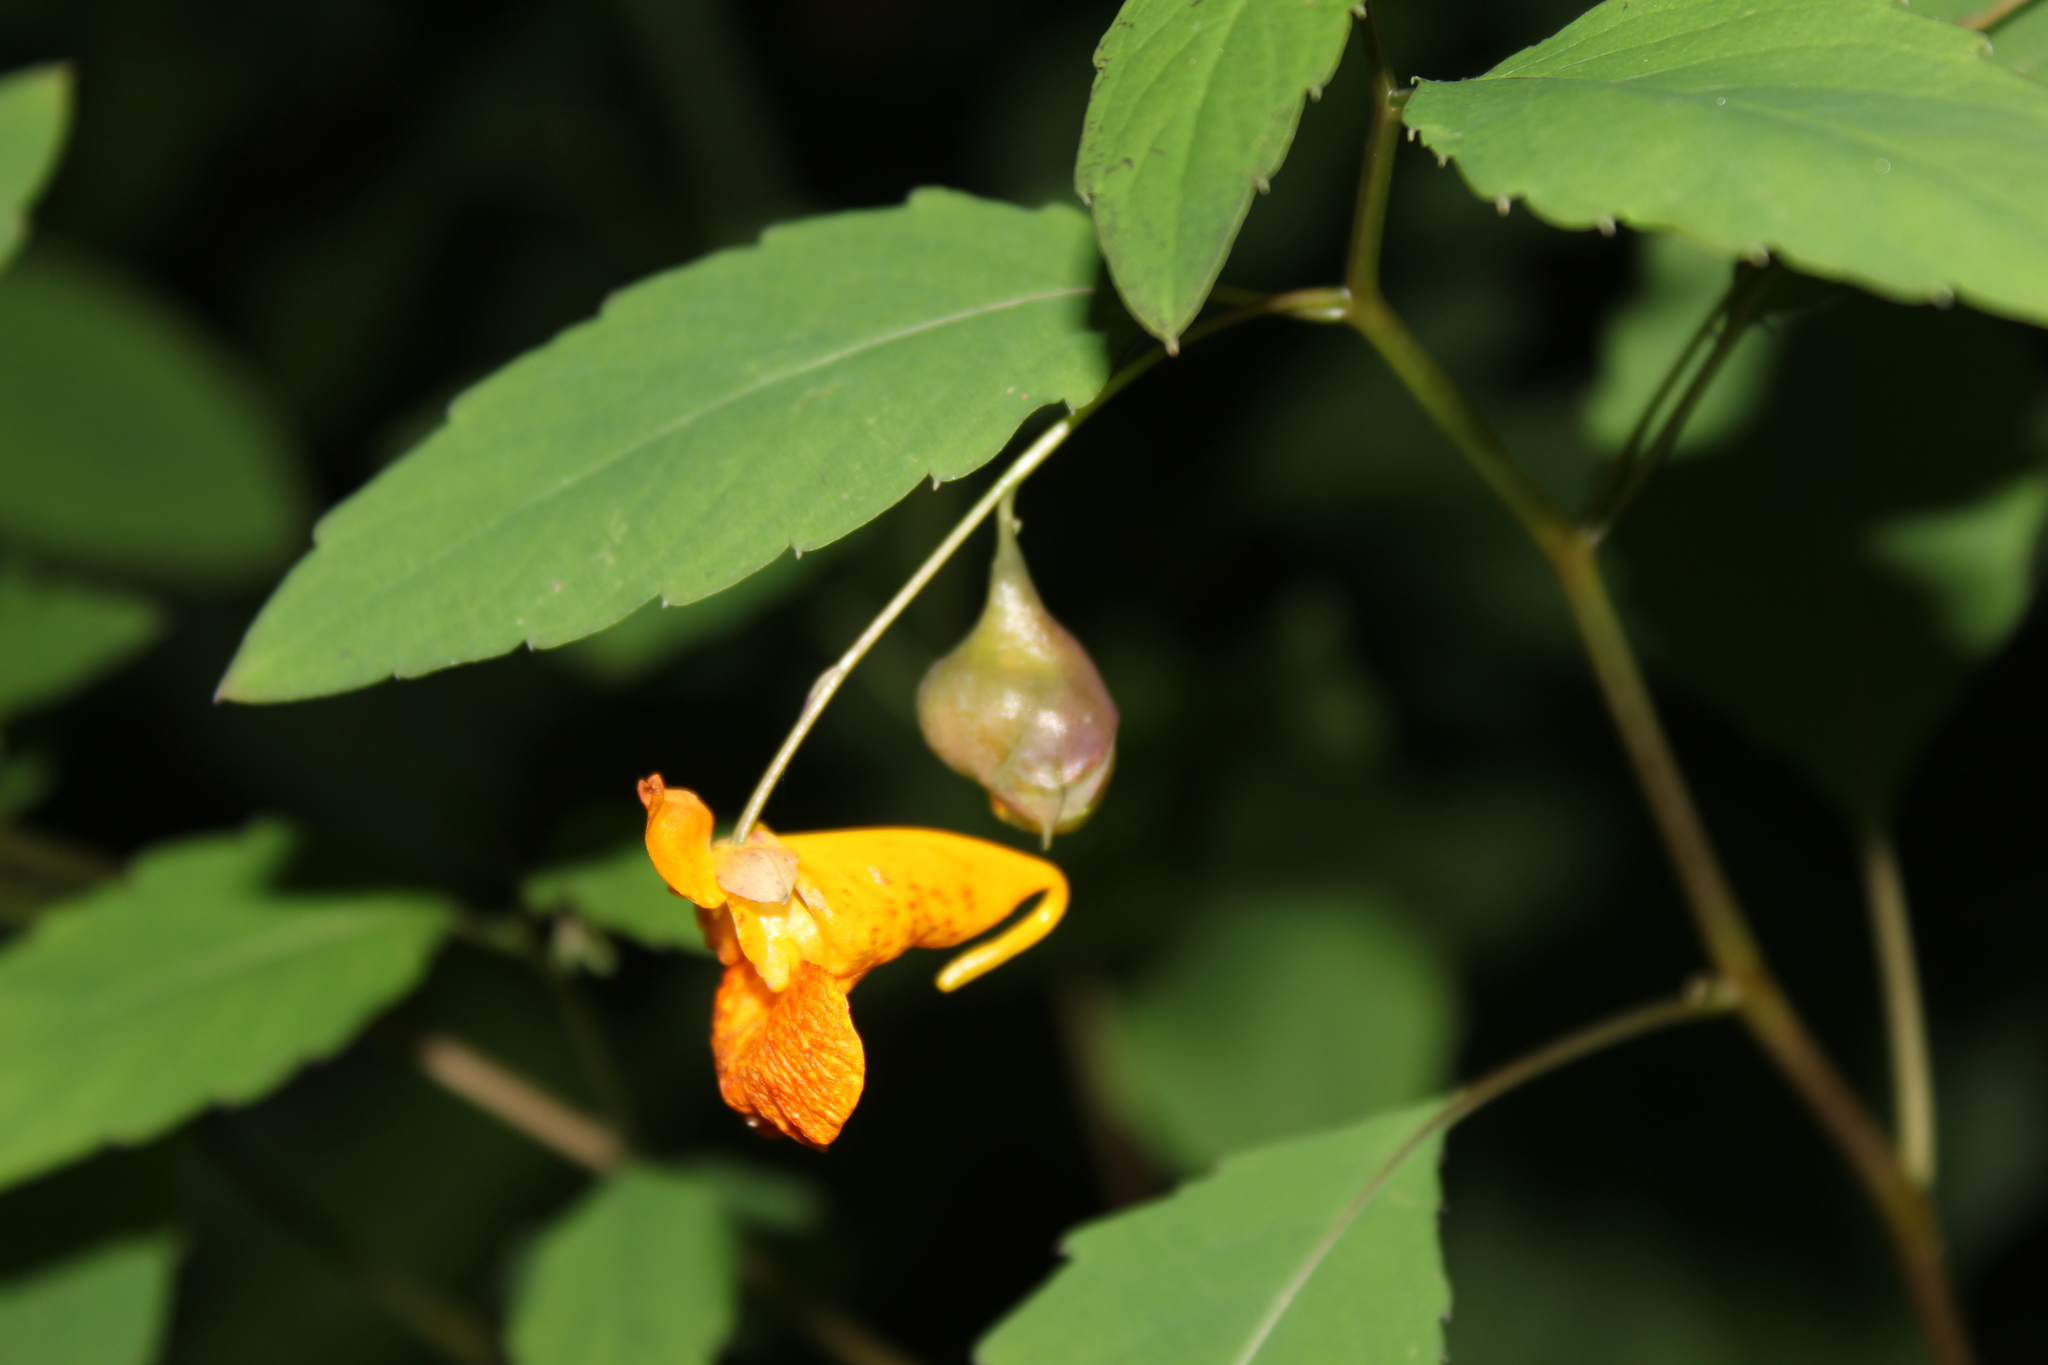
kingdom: Animalia
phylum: Arthropoda
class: Insecta
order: Diptera
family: Cecidomyiidae
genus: Schizomyia
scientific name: Schizomyia impatientis
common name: Jewelweed gall midge
